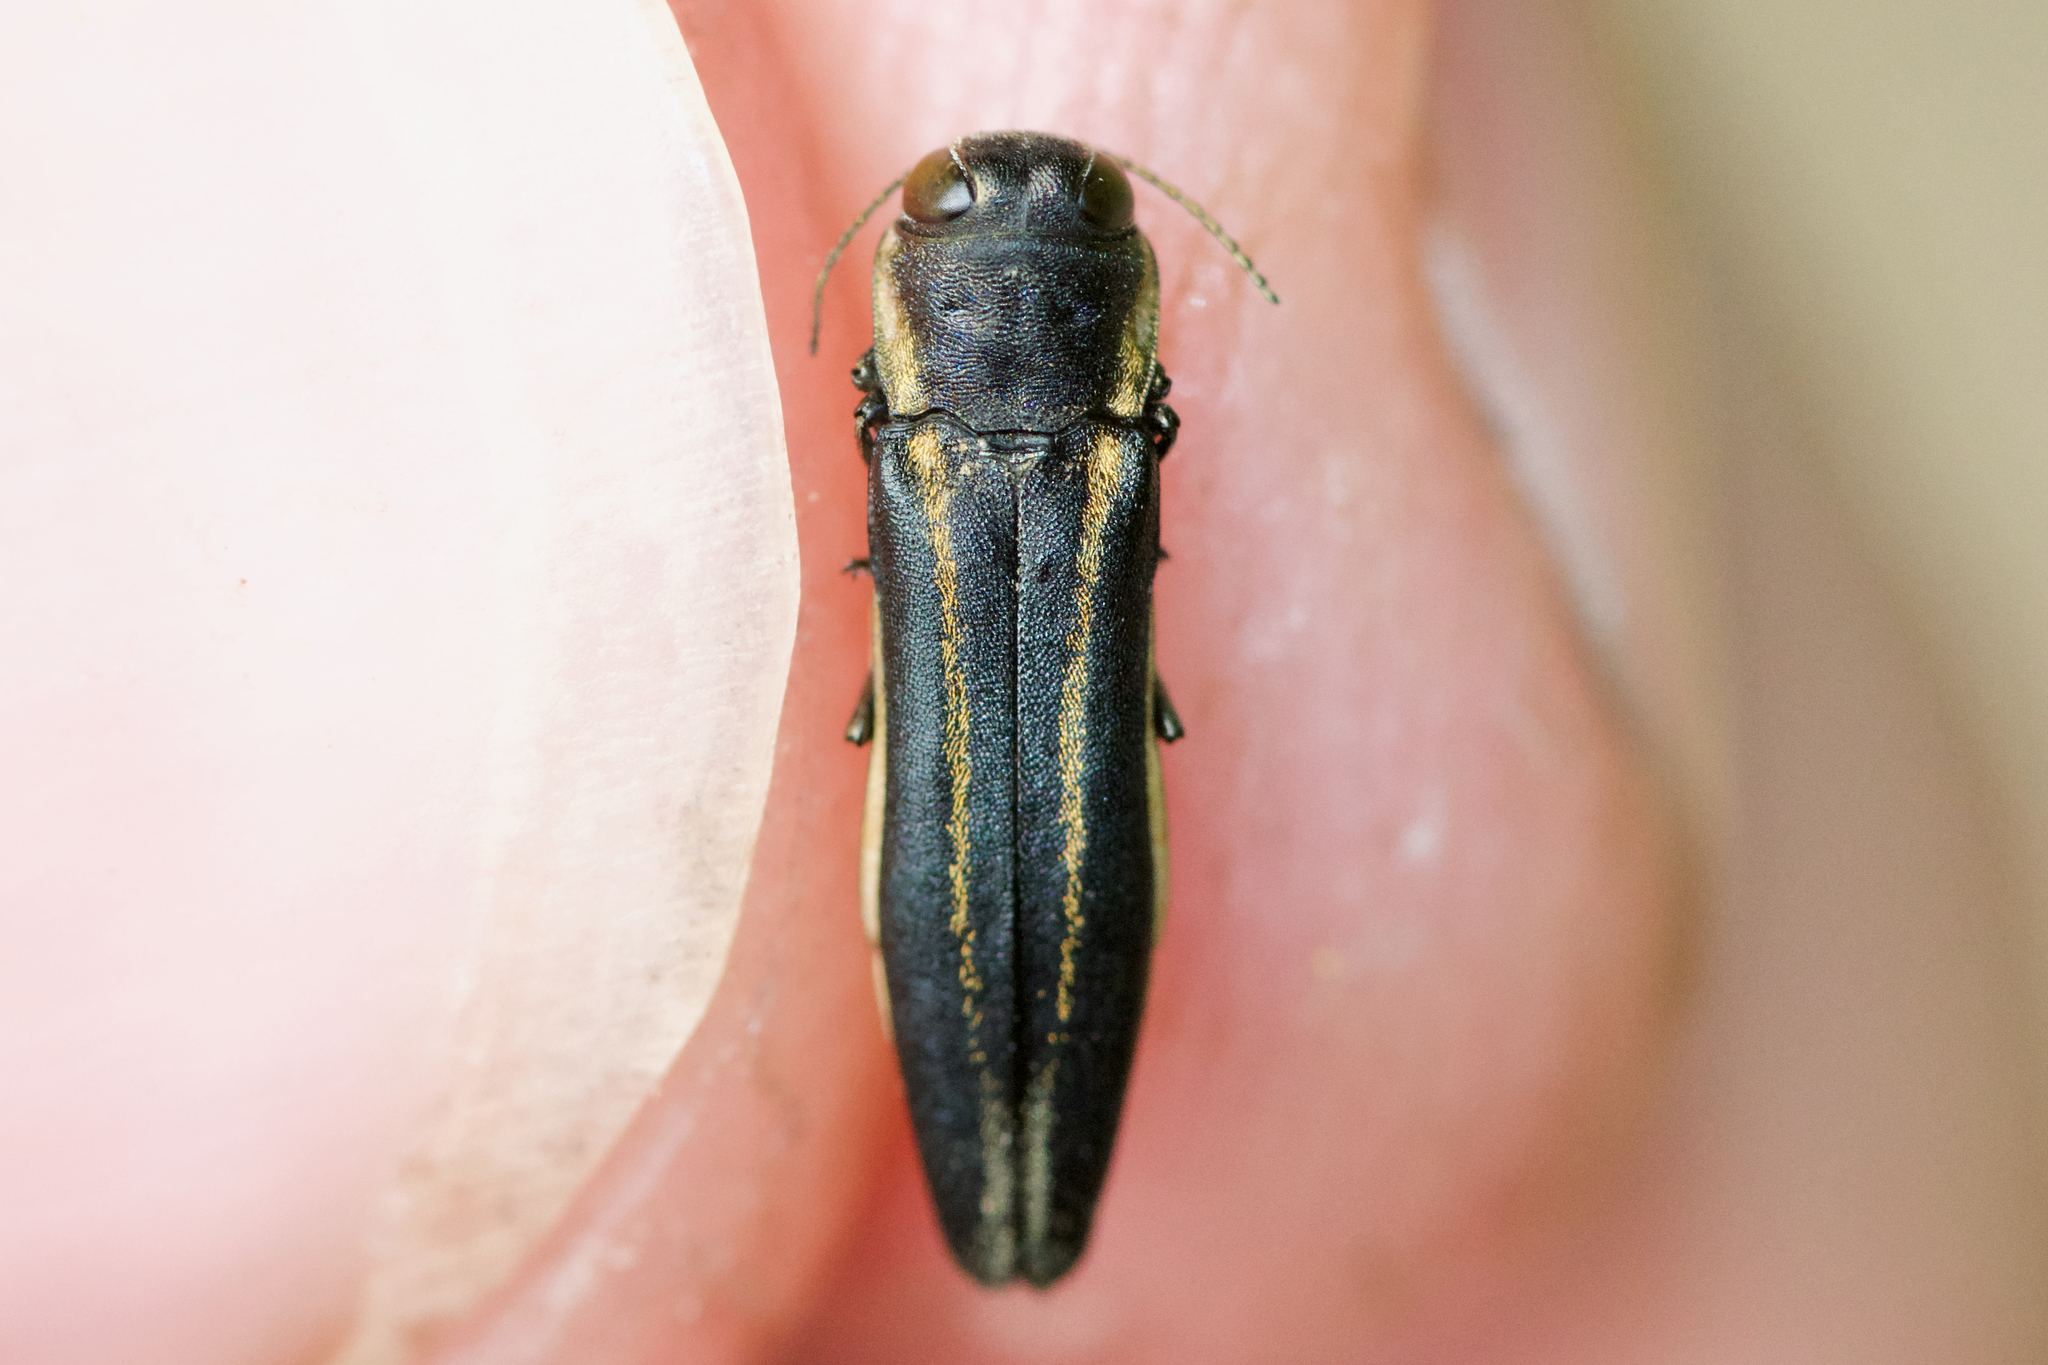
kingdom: Animalia
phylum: Arthropoda
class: Insecta
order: Coleoptera
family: Buprestidae
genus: Agrilus
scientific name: Agrilus bilineatus
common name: Two-lined chestnut borer
